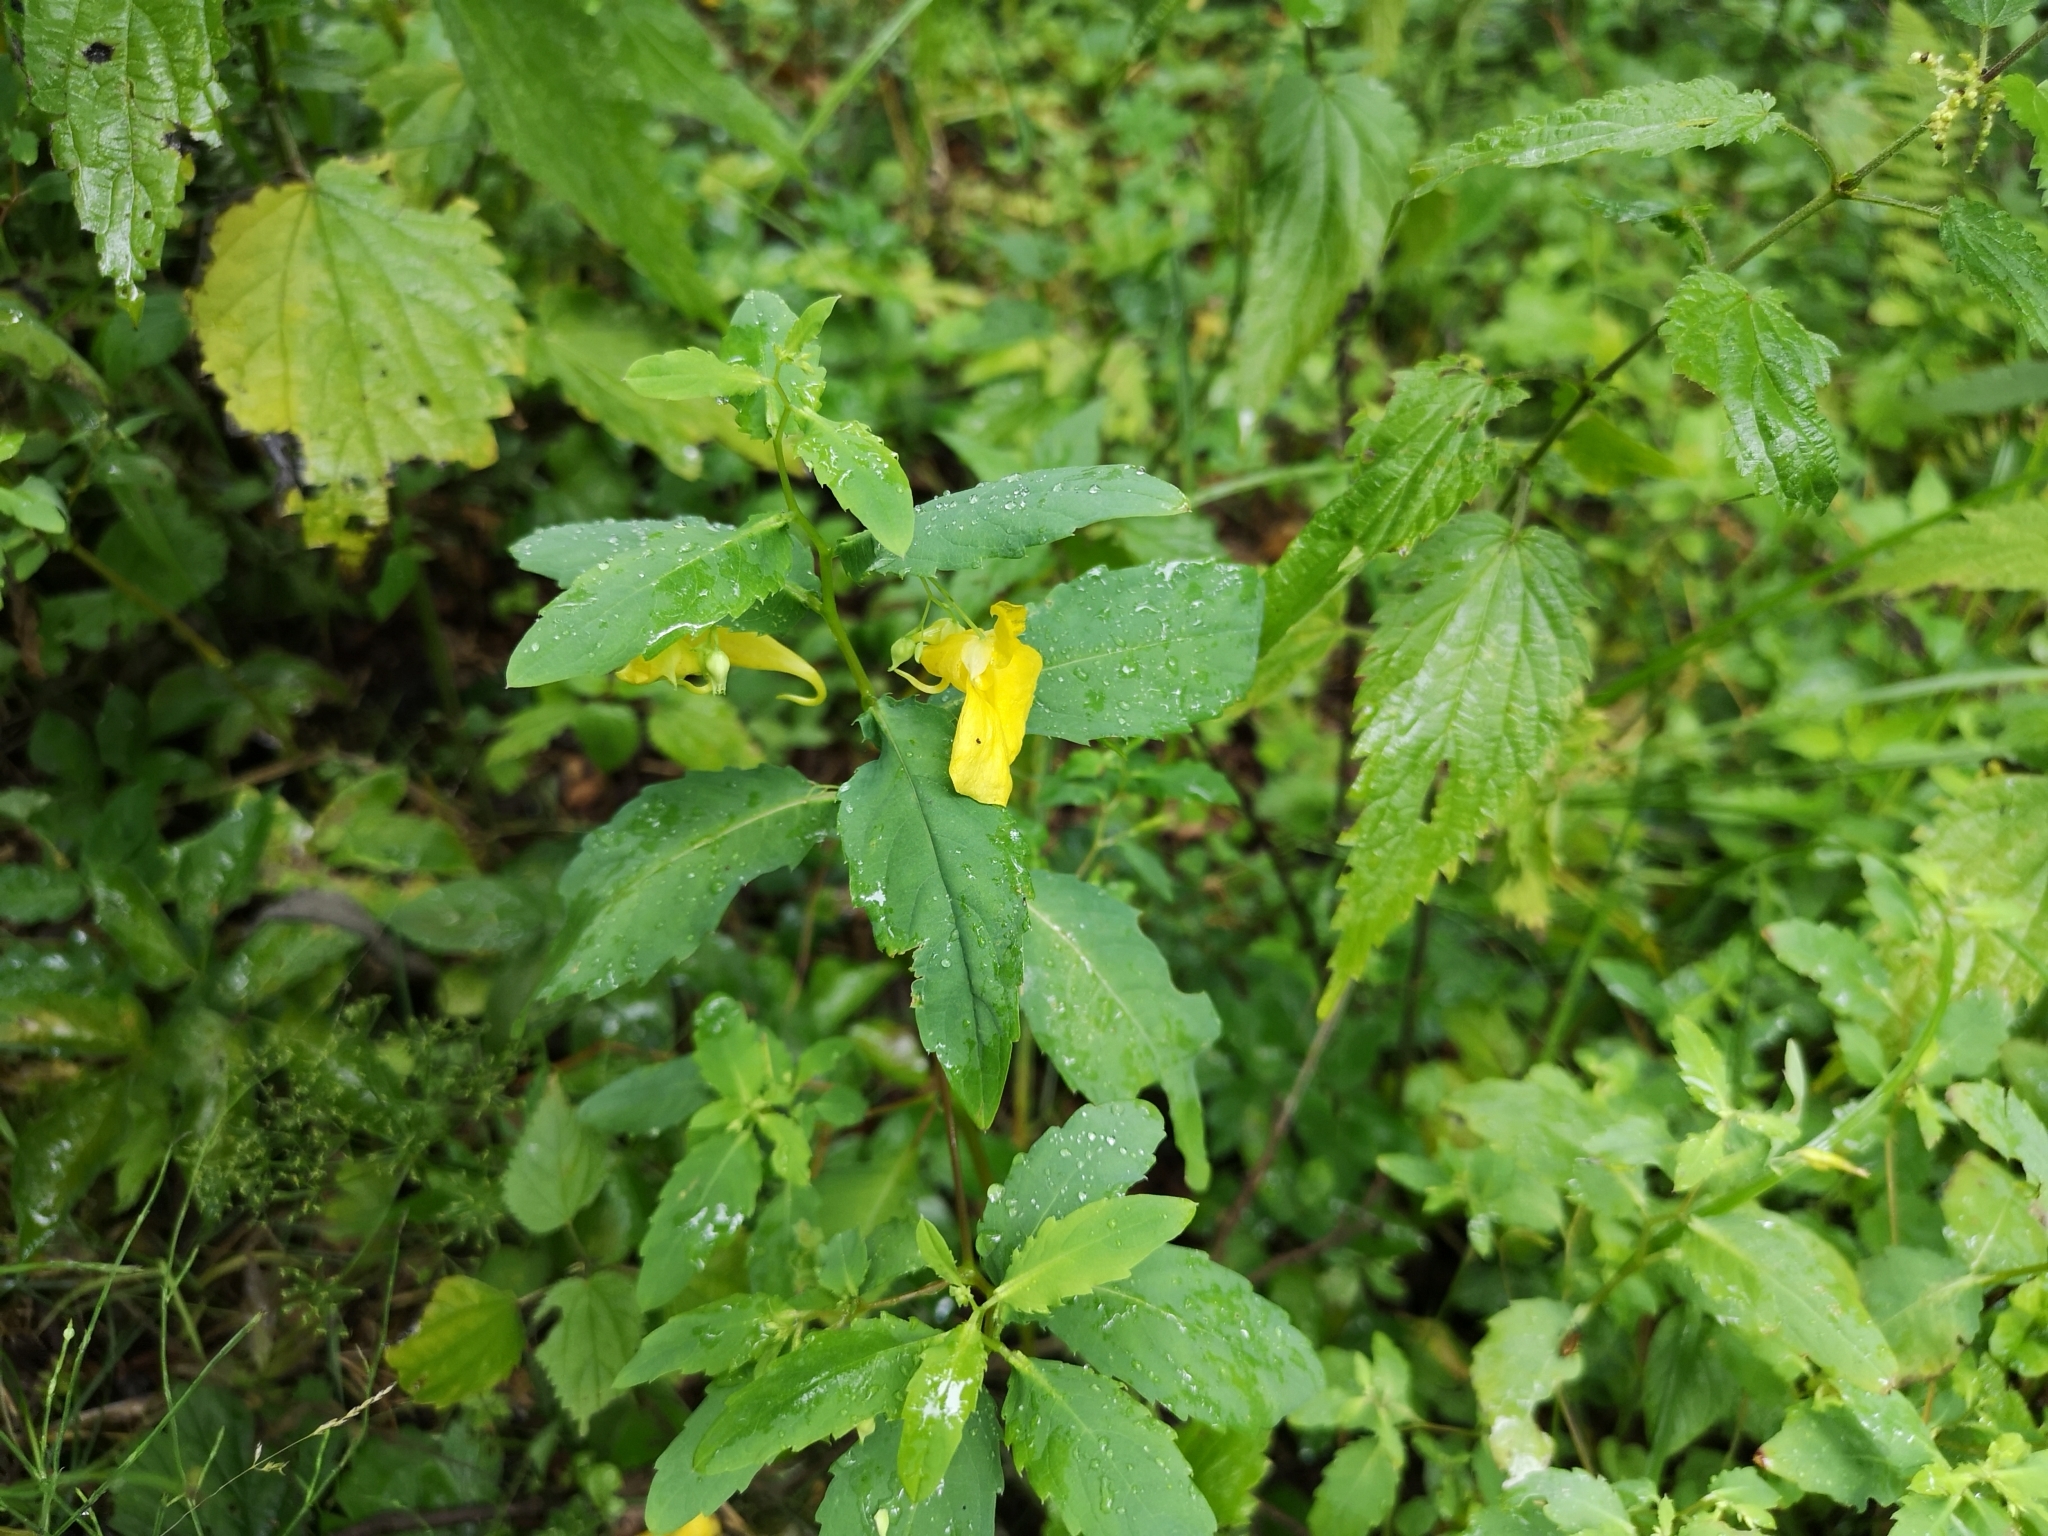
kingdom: Plantae
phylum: Tracheophyta
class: Magnoliopsida
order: Ericales
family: Balsaminaceae
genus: Impatiens
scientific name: Impatiens noli-tangere
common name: Touch-me-not balsam
